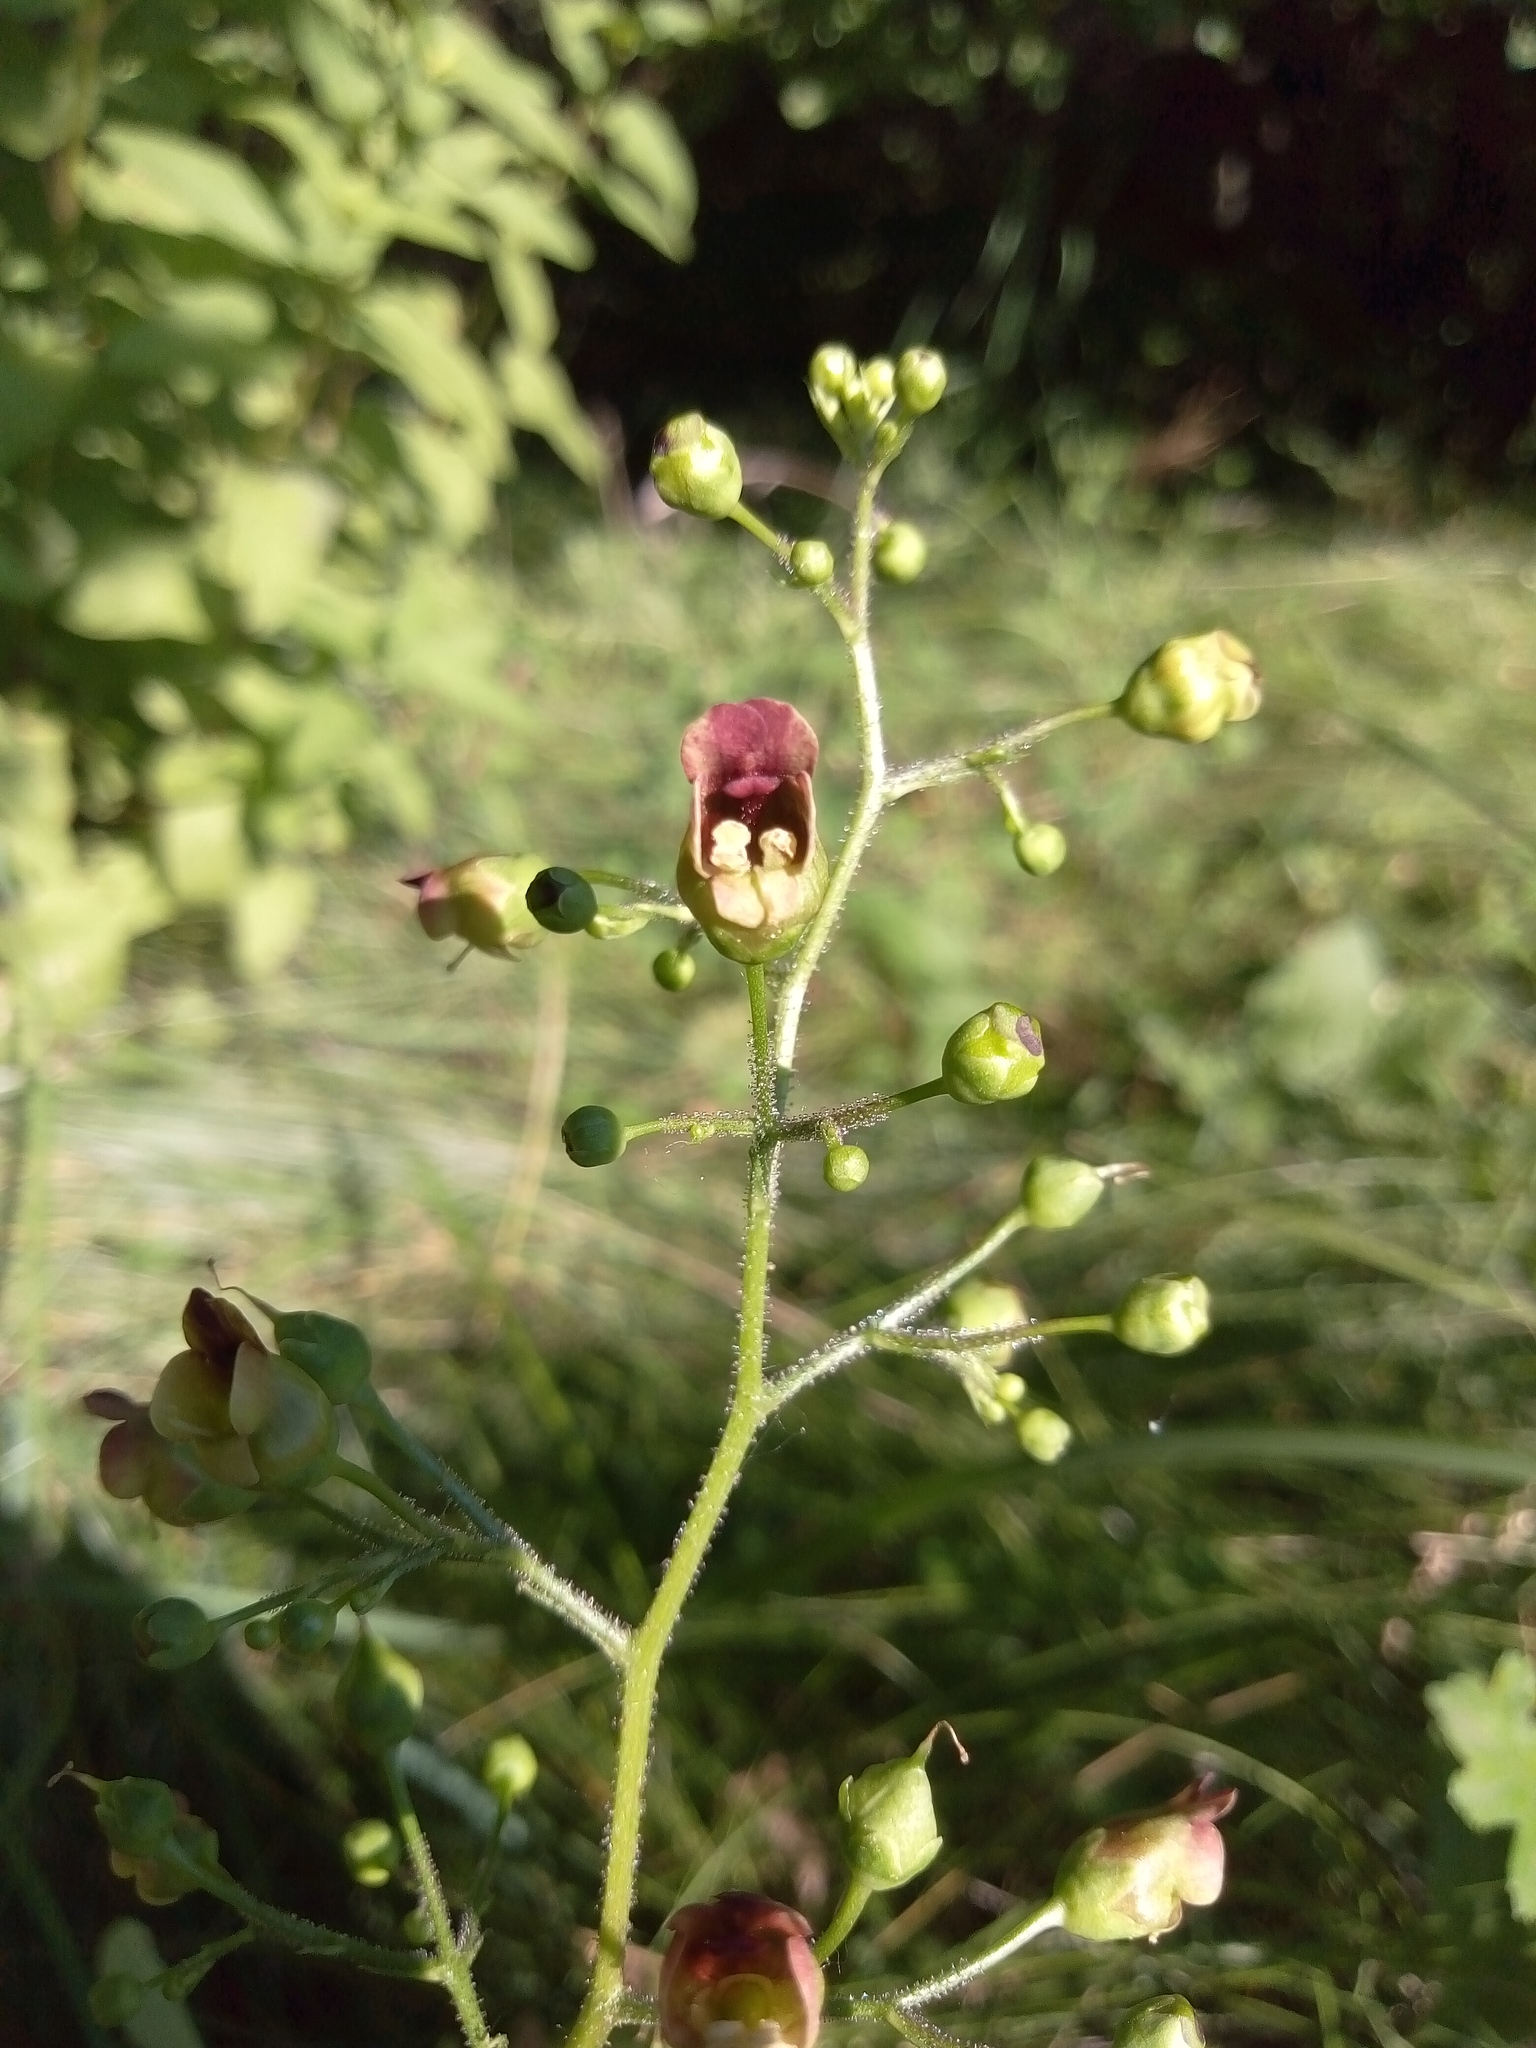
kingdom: Plantae
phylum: Tracheophyta
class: Magnoliopsida
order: Lamiales
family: Scrophulariaceae
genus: Scrophularia
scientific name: Scrophularia nodosa
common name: Common figwort
